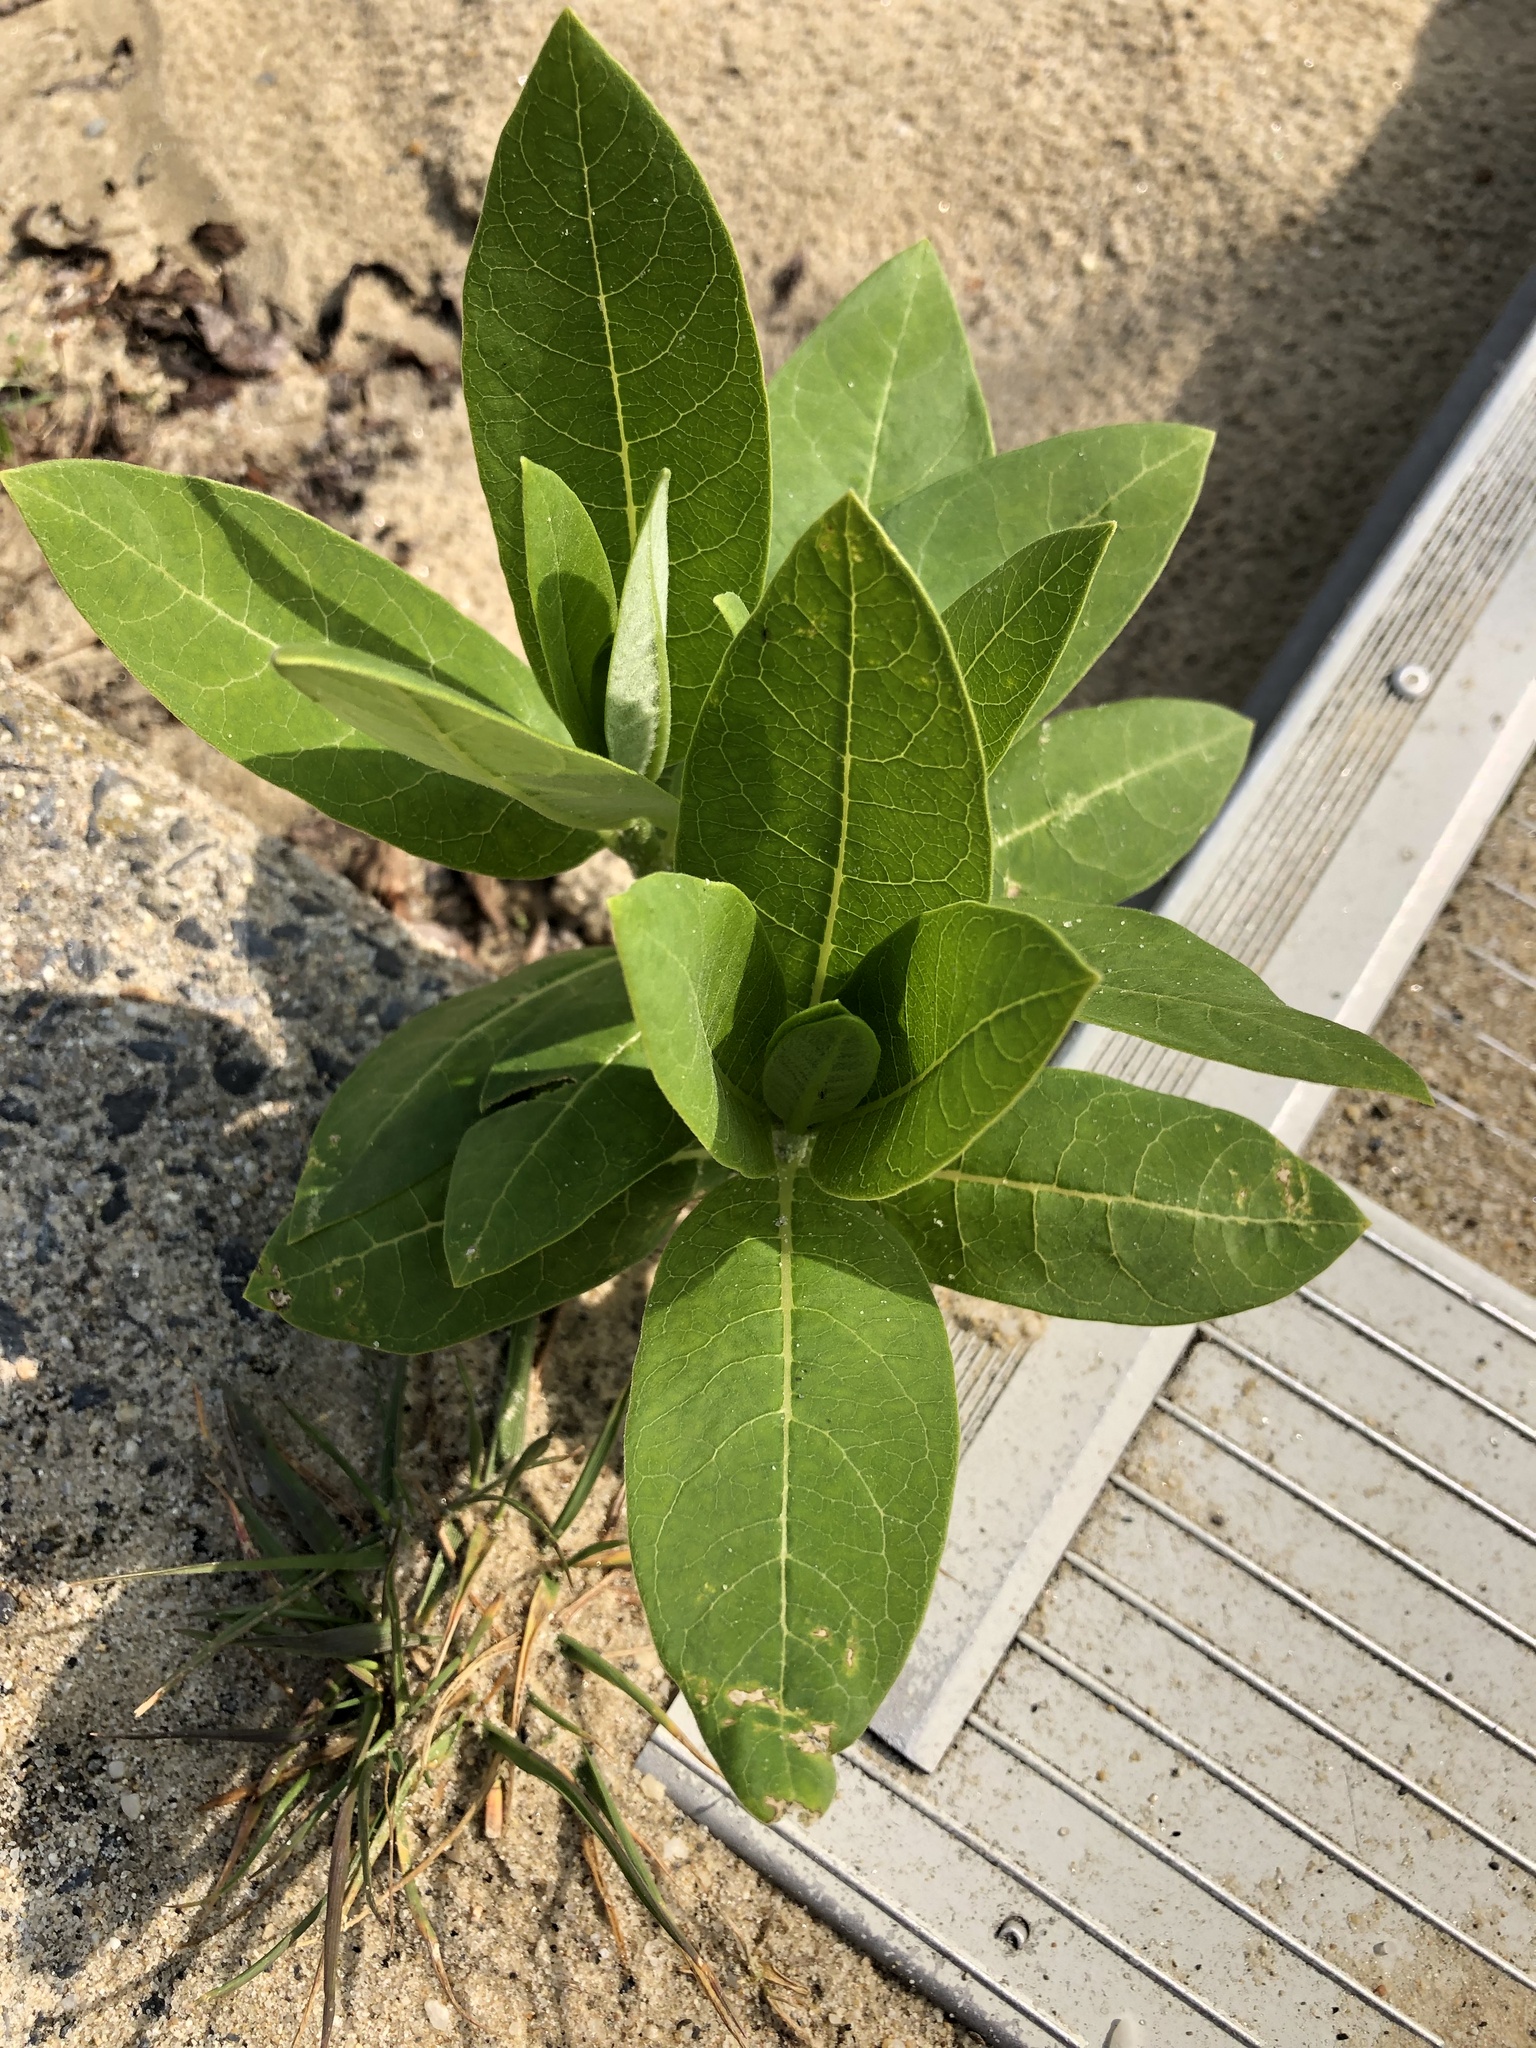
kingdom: Plantae
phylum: Tracheophyta
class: Magnoliopsida
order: Gentianales
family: Apocynaceae
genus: Asclepias
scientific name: Asclepias syriaca
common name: Common milkweed
